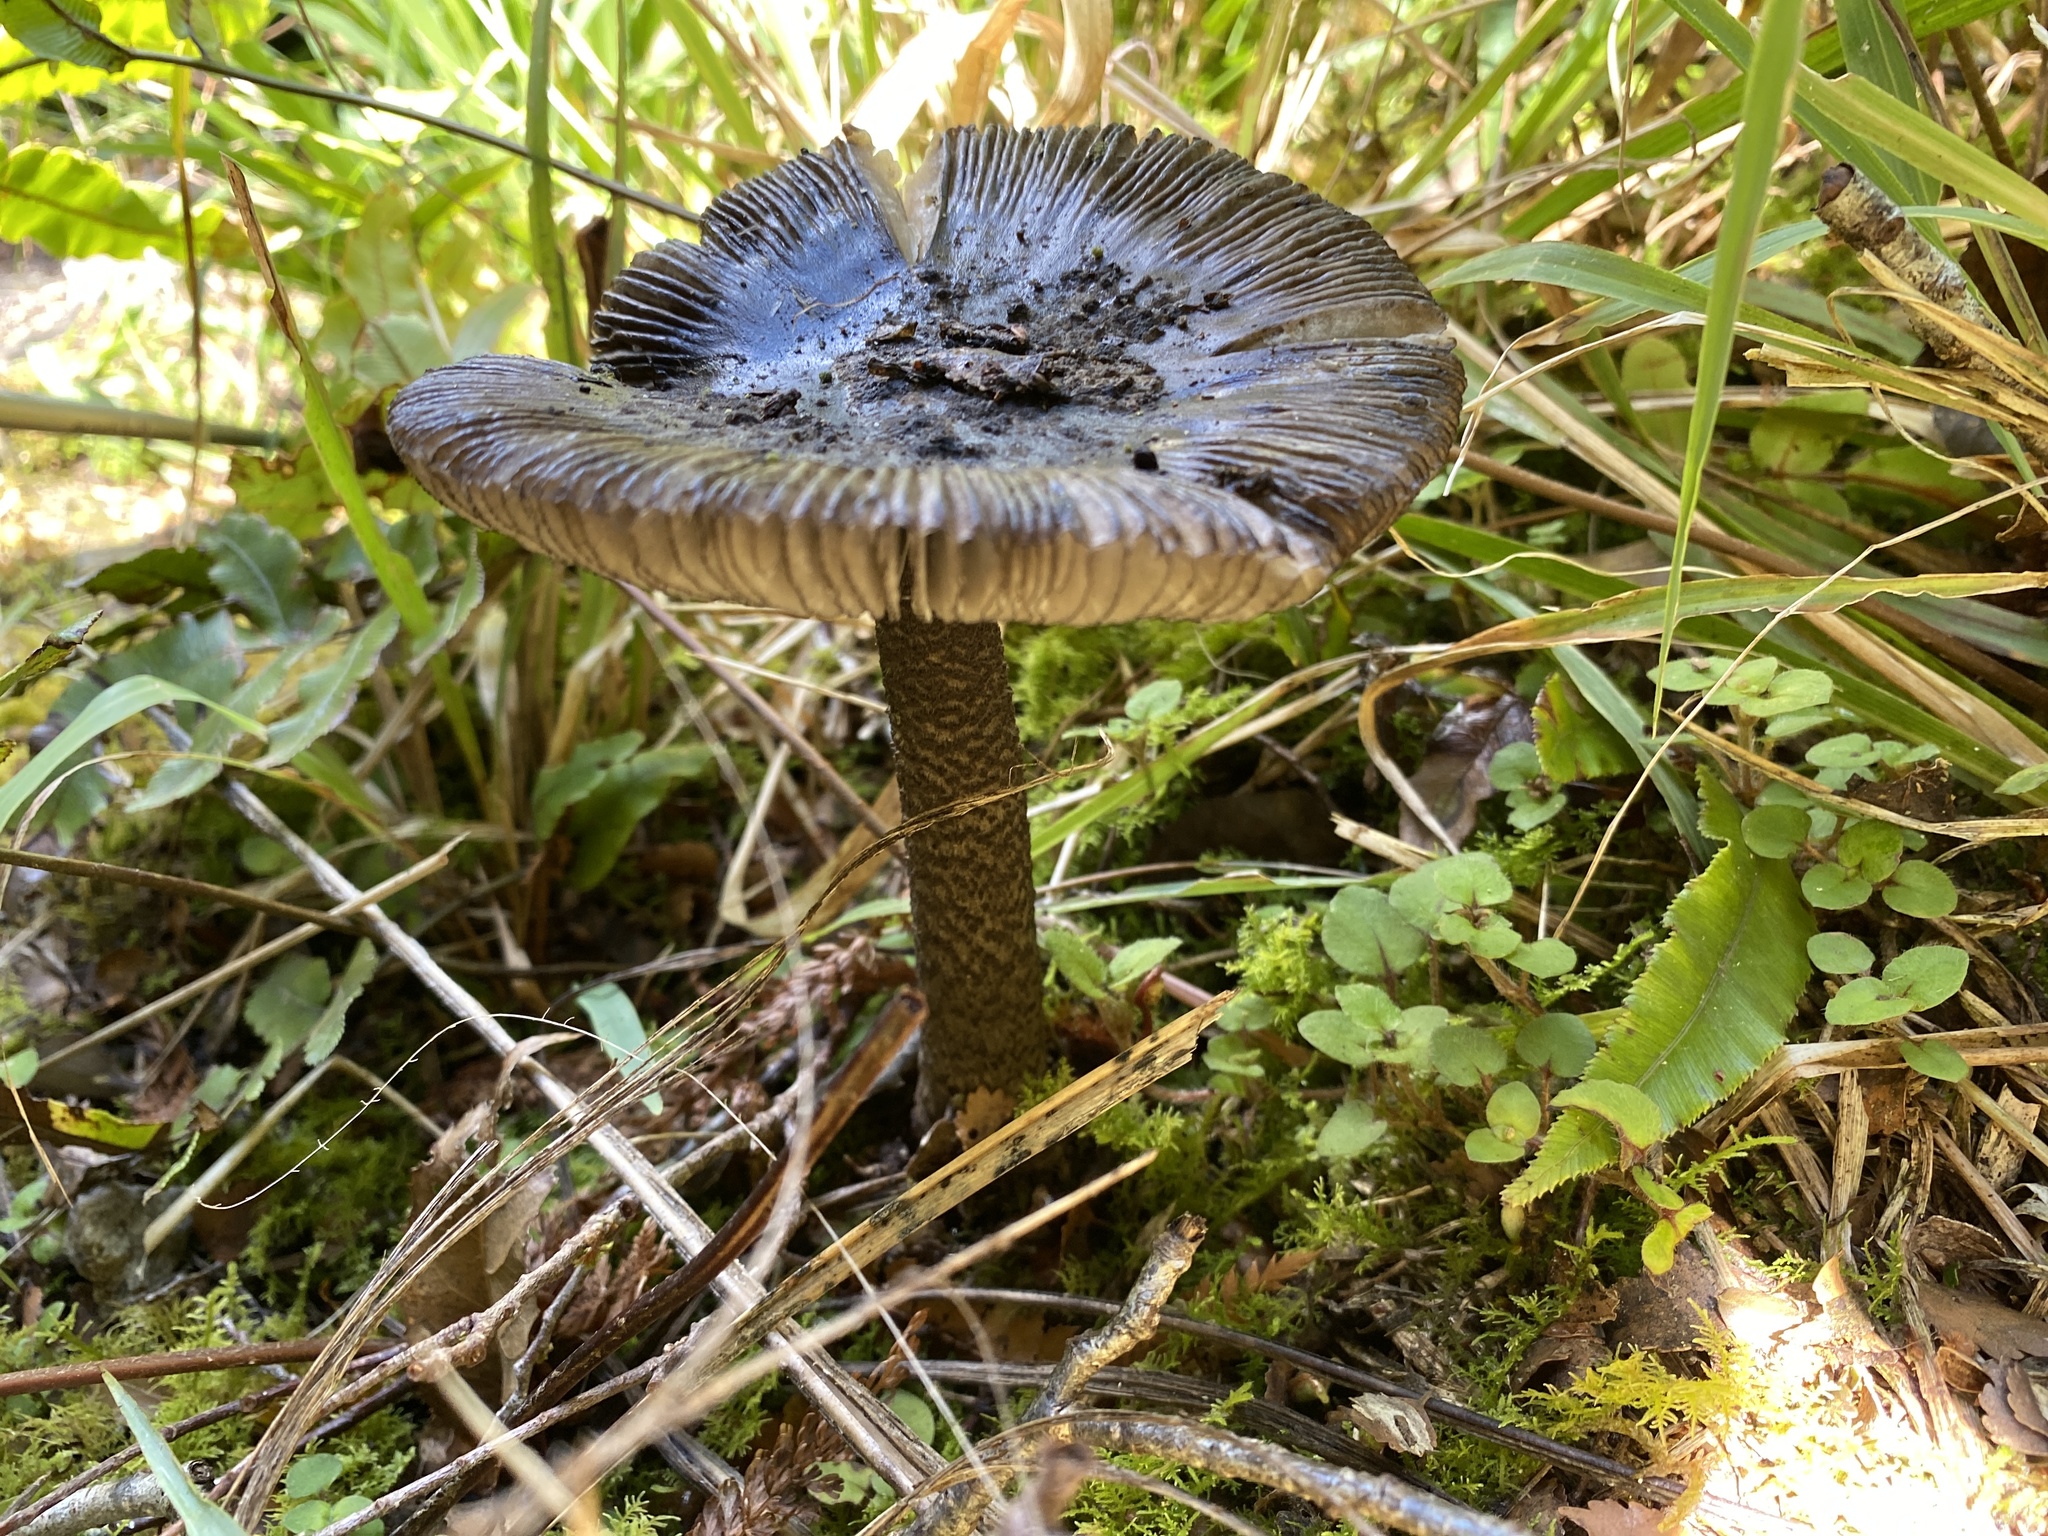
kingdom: Fungi
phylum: Basidiomycota
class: Agaricomycetes
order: Agaricales
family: Amanitaceae
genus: Amanita
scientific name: Amanita pekeoides
